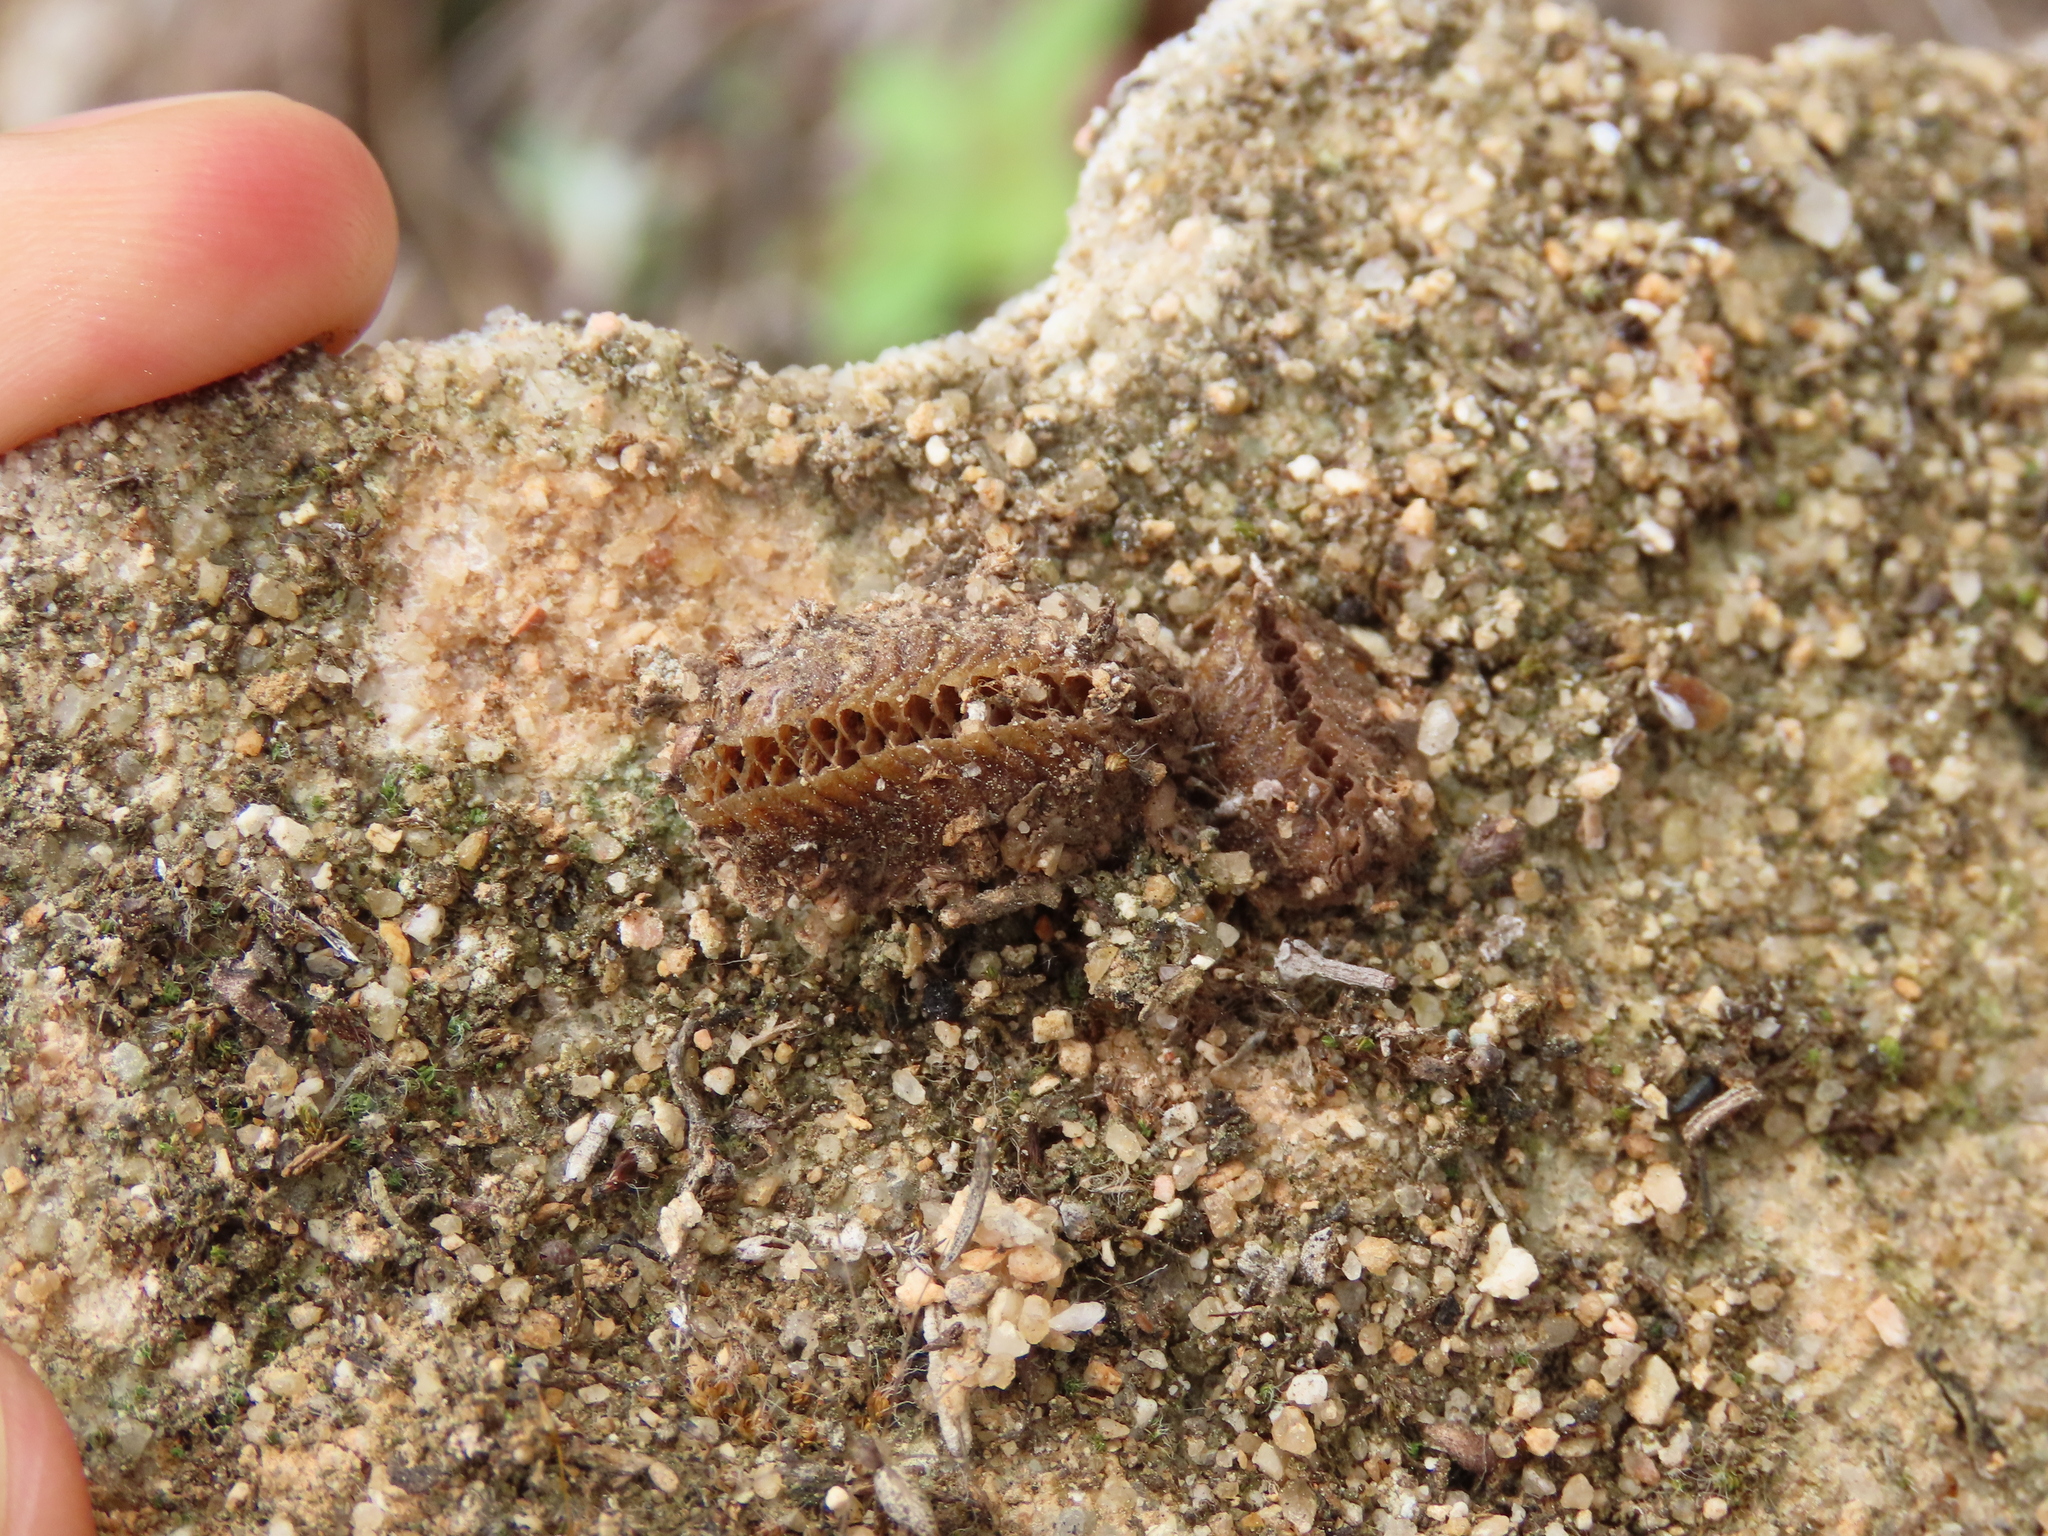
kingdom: Animalia
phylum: Arthropoda
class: Insecta
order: Mantodea
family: Eremiaphilidae
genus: Iris
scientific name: Iris oratoria
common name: Mediterranean mantis
